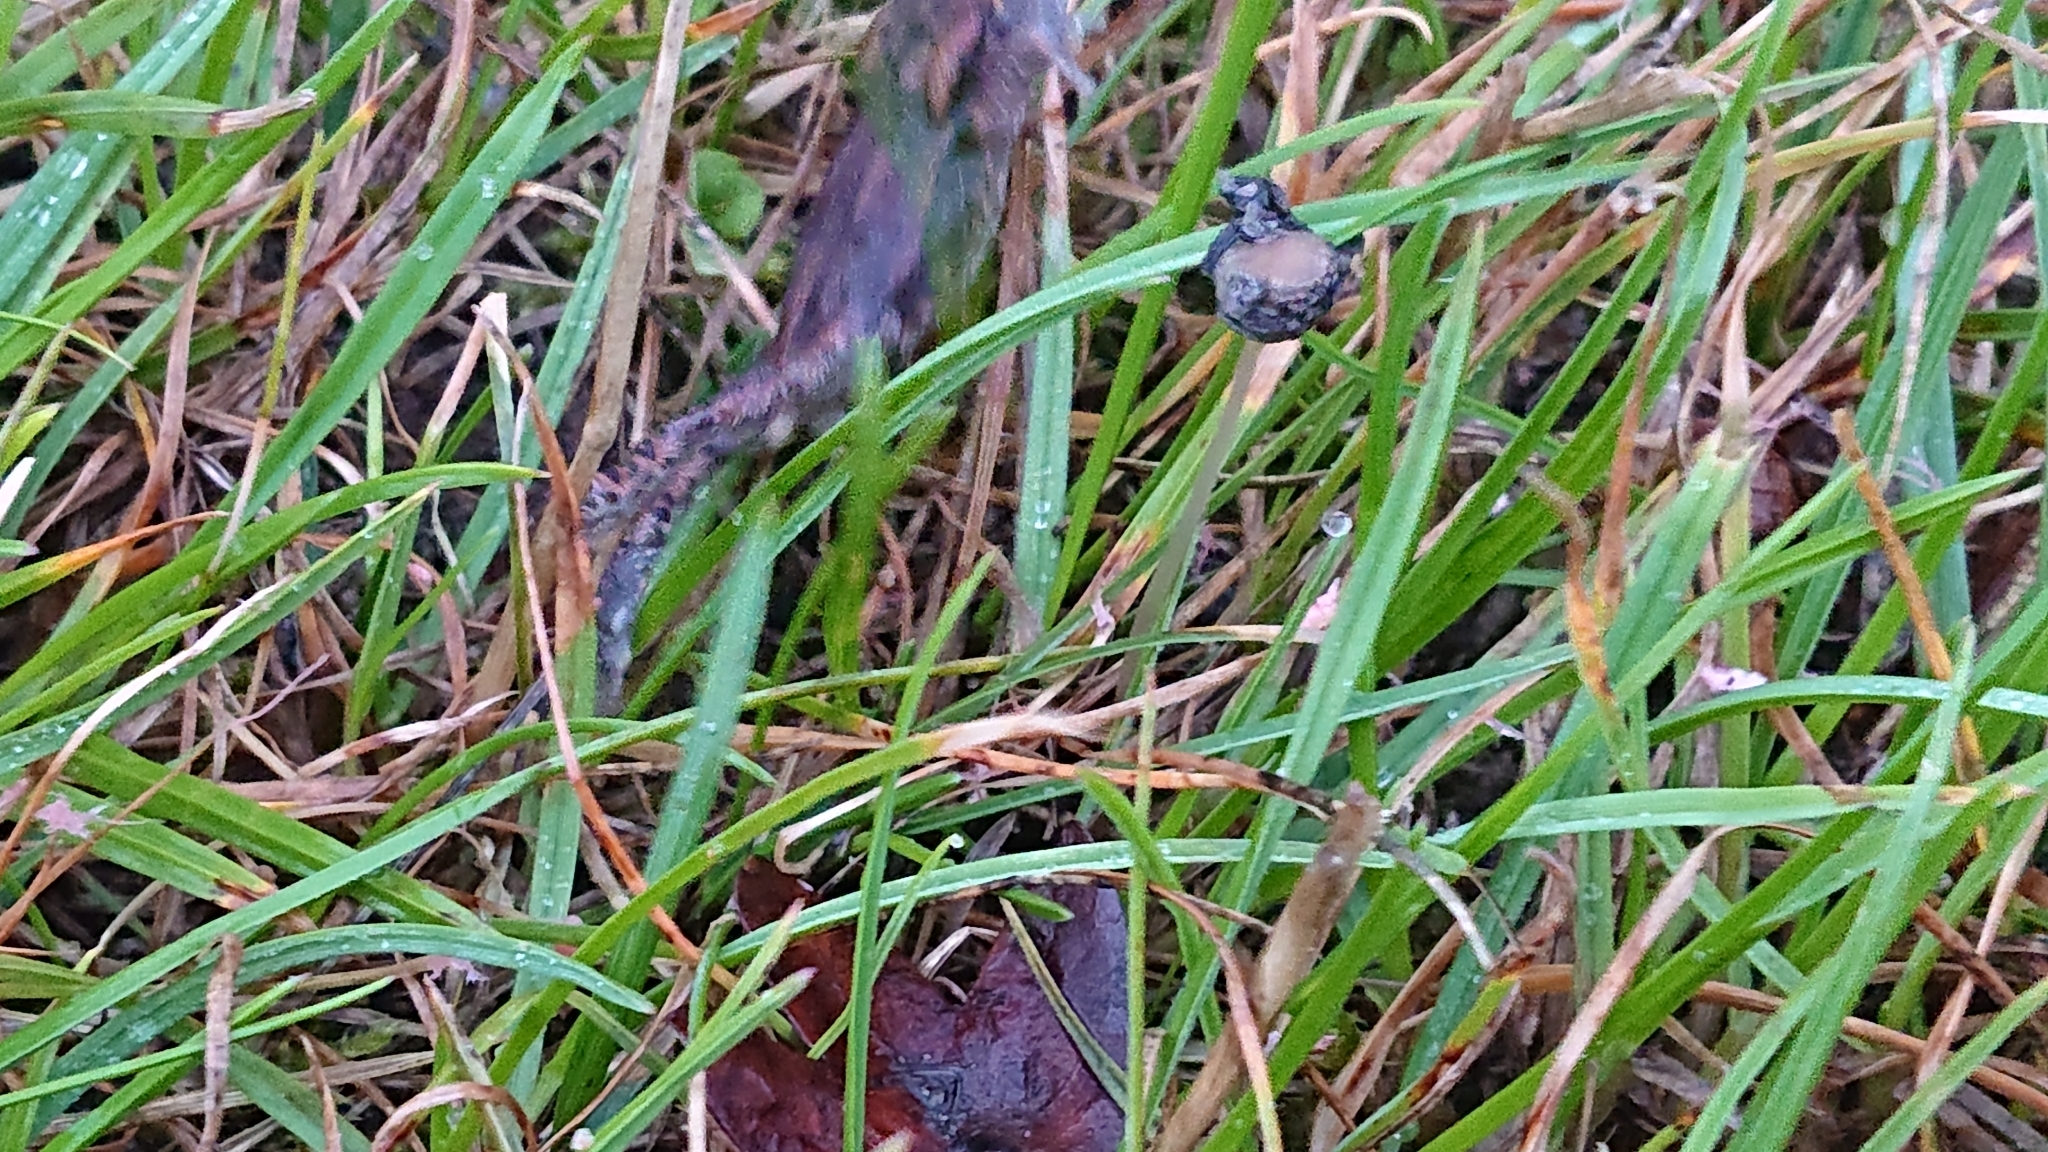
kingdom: Animalia
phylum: Chordata
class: Amphibia
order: Anura
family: Bufonidae
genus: Bufo
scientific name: Bufo bufo
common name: Common toad
